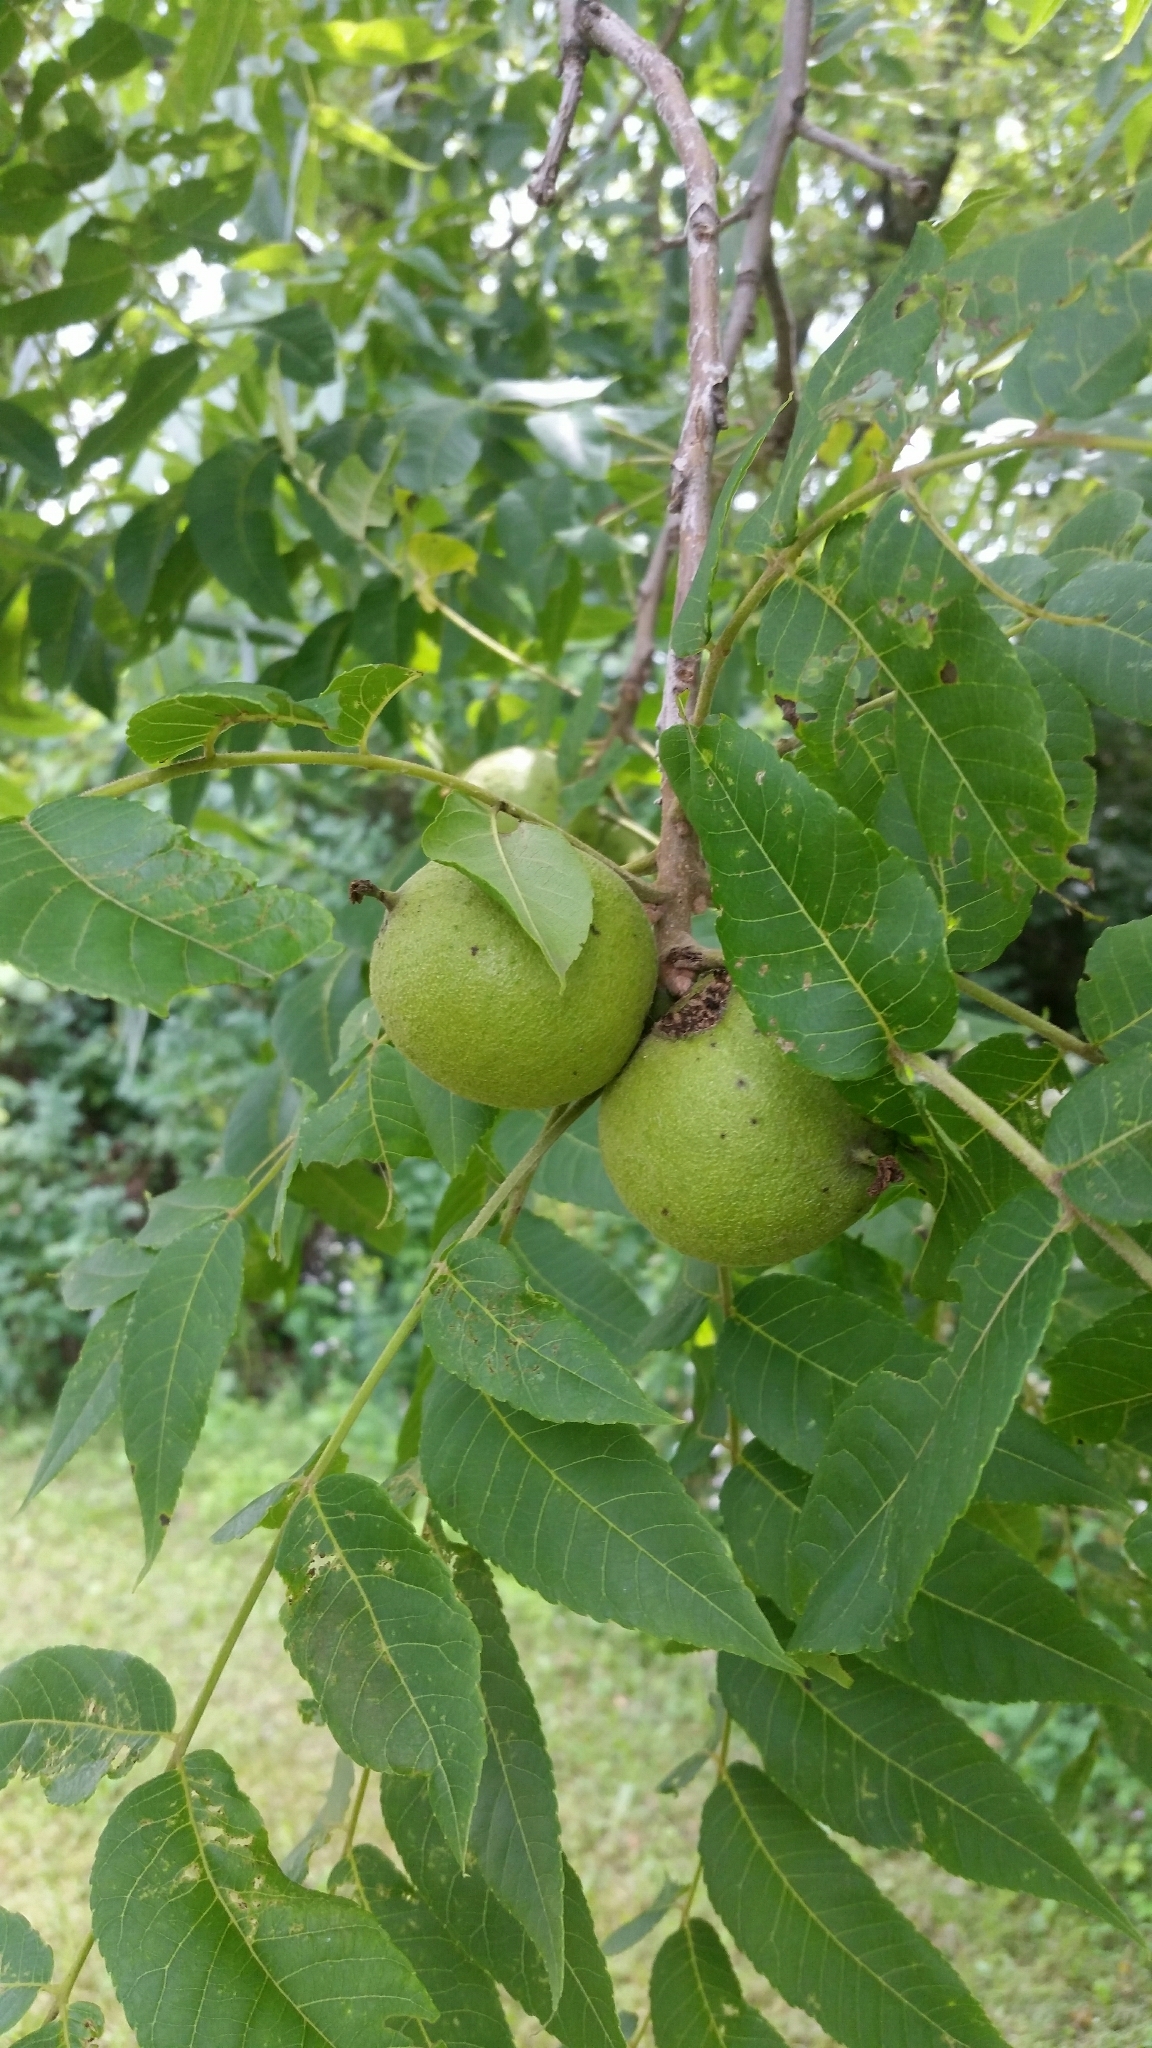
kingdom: Plantae
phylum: Tracheophyta
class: Magnoliopsida
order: Fagales
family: Juglandaceae
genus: Juglans
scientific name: Juglans nigra
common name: Black walnut
